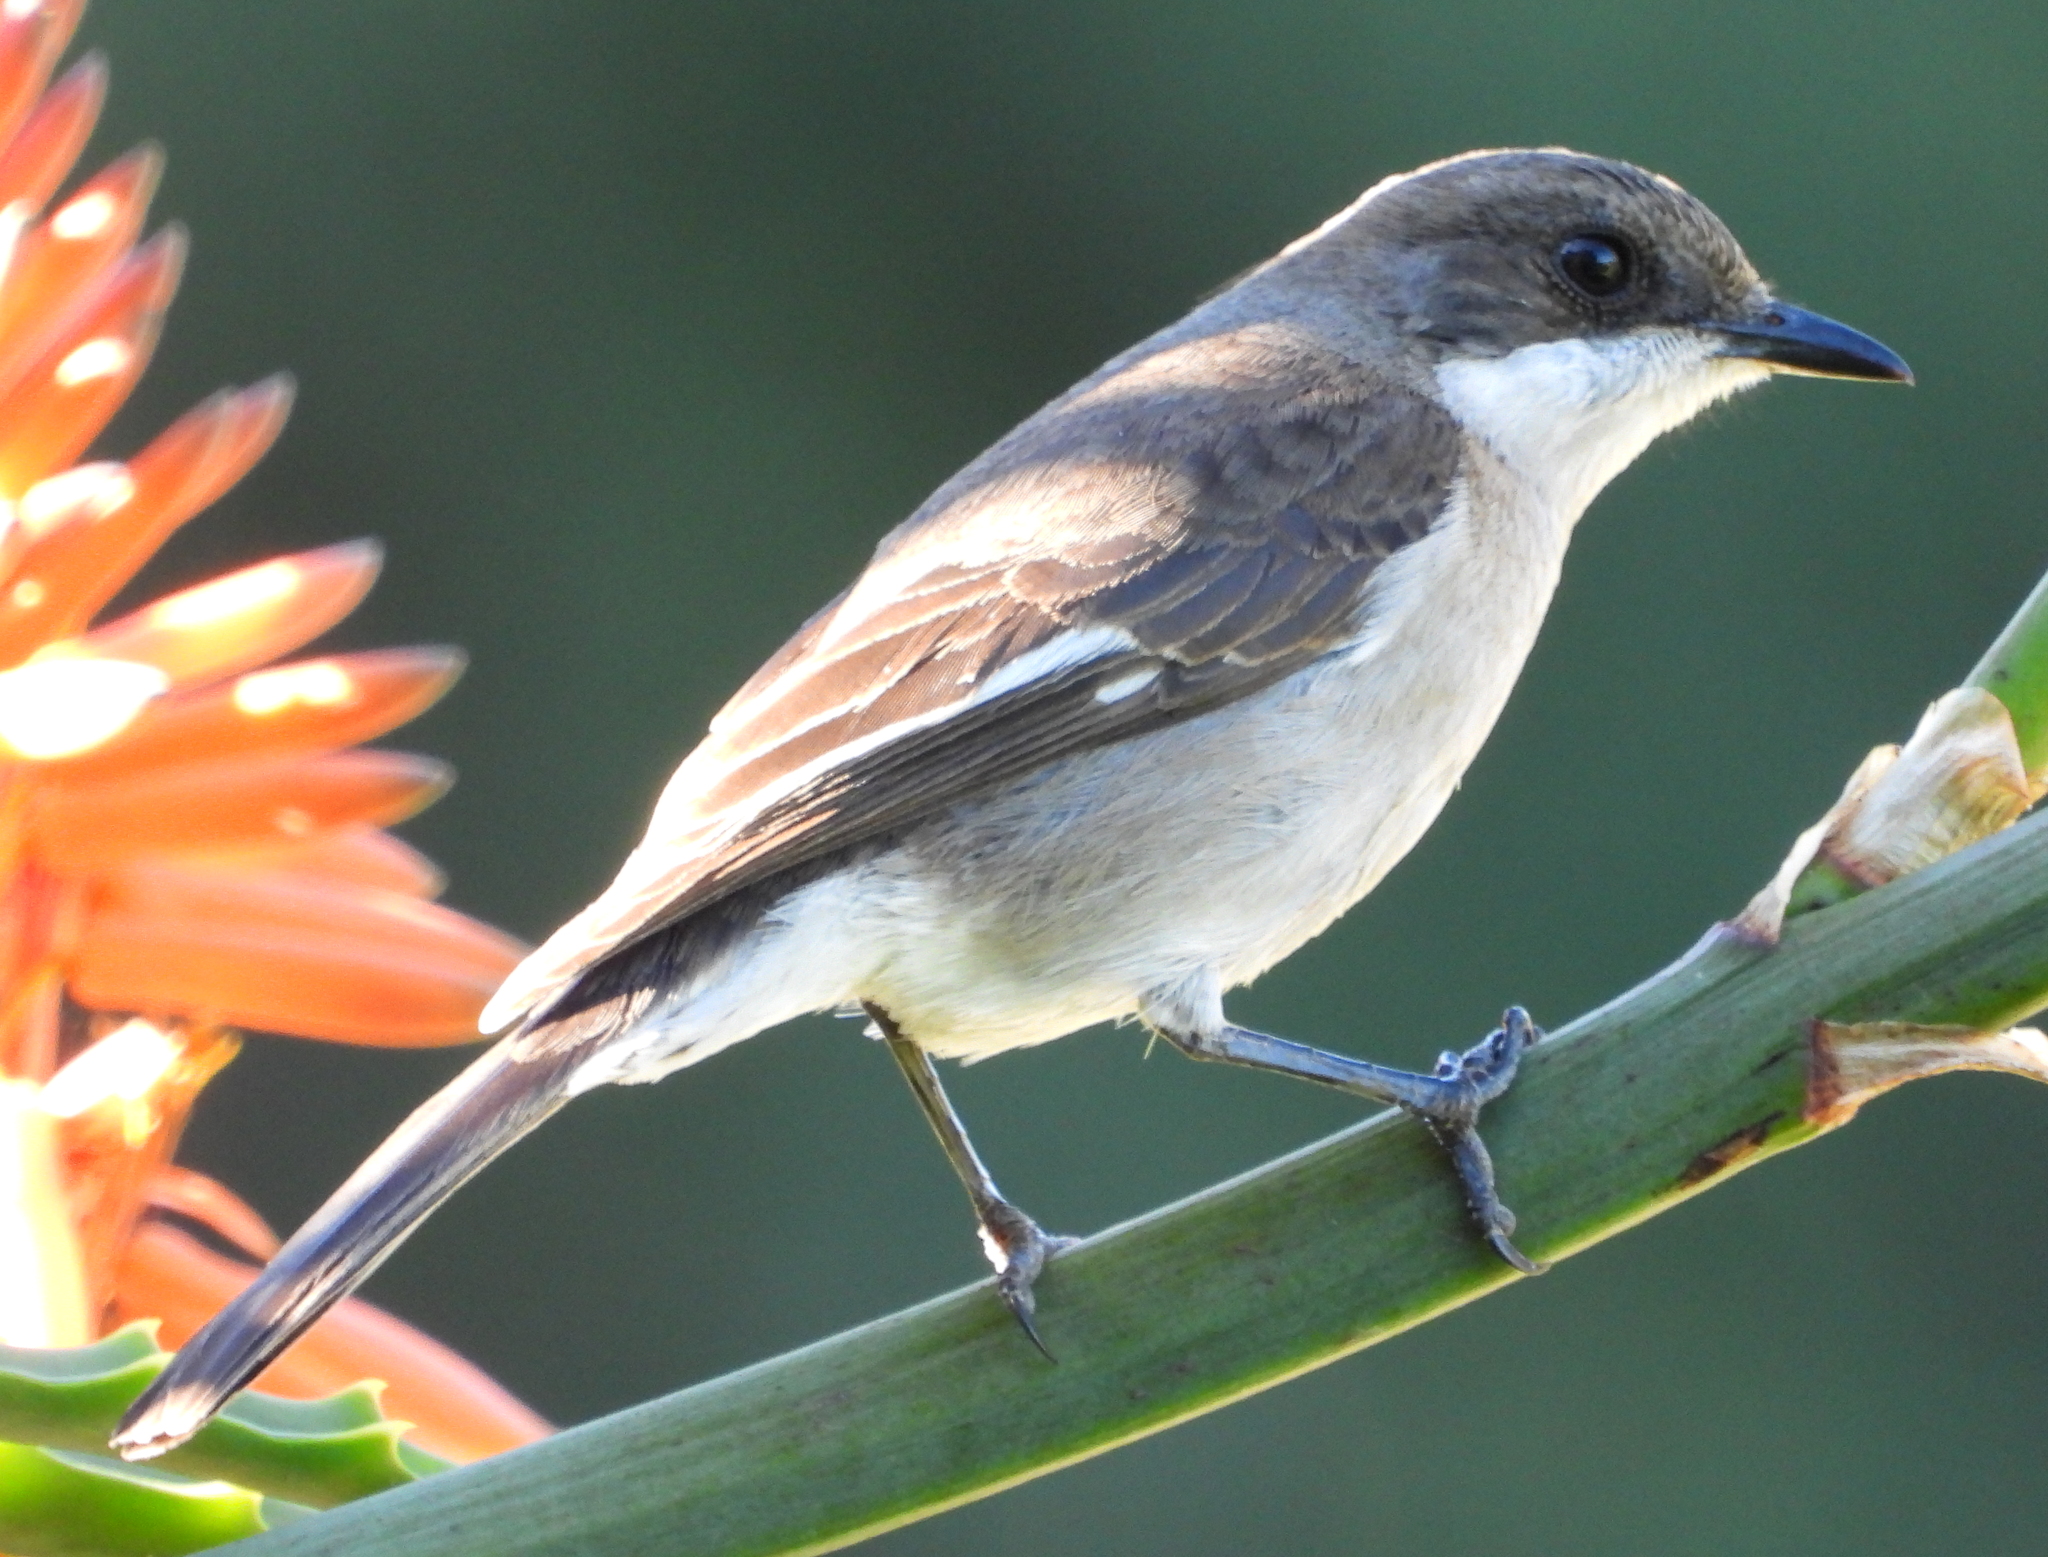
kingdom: Animalia
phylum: Chordata
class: Aves
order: Passeriformes
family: Muscicapidae
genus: Sigelus
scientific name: Sigelus silens
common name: Fiscal flycatcher
